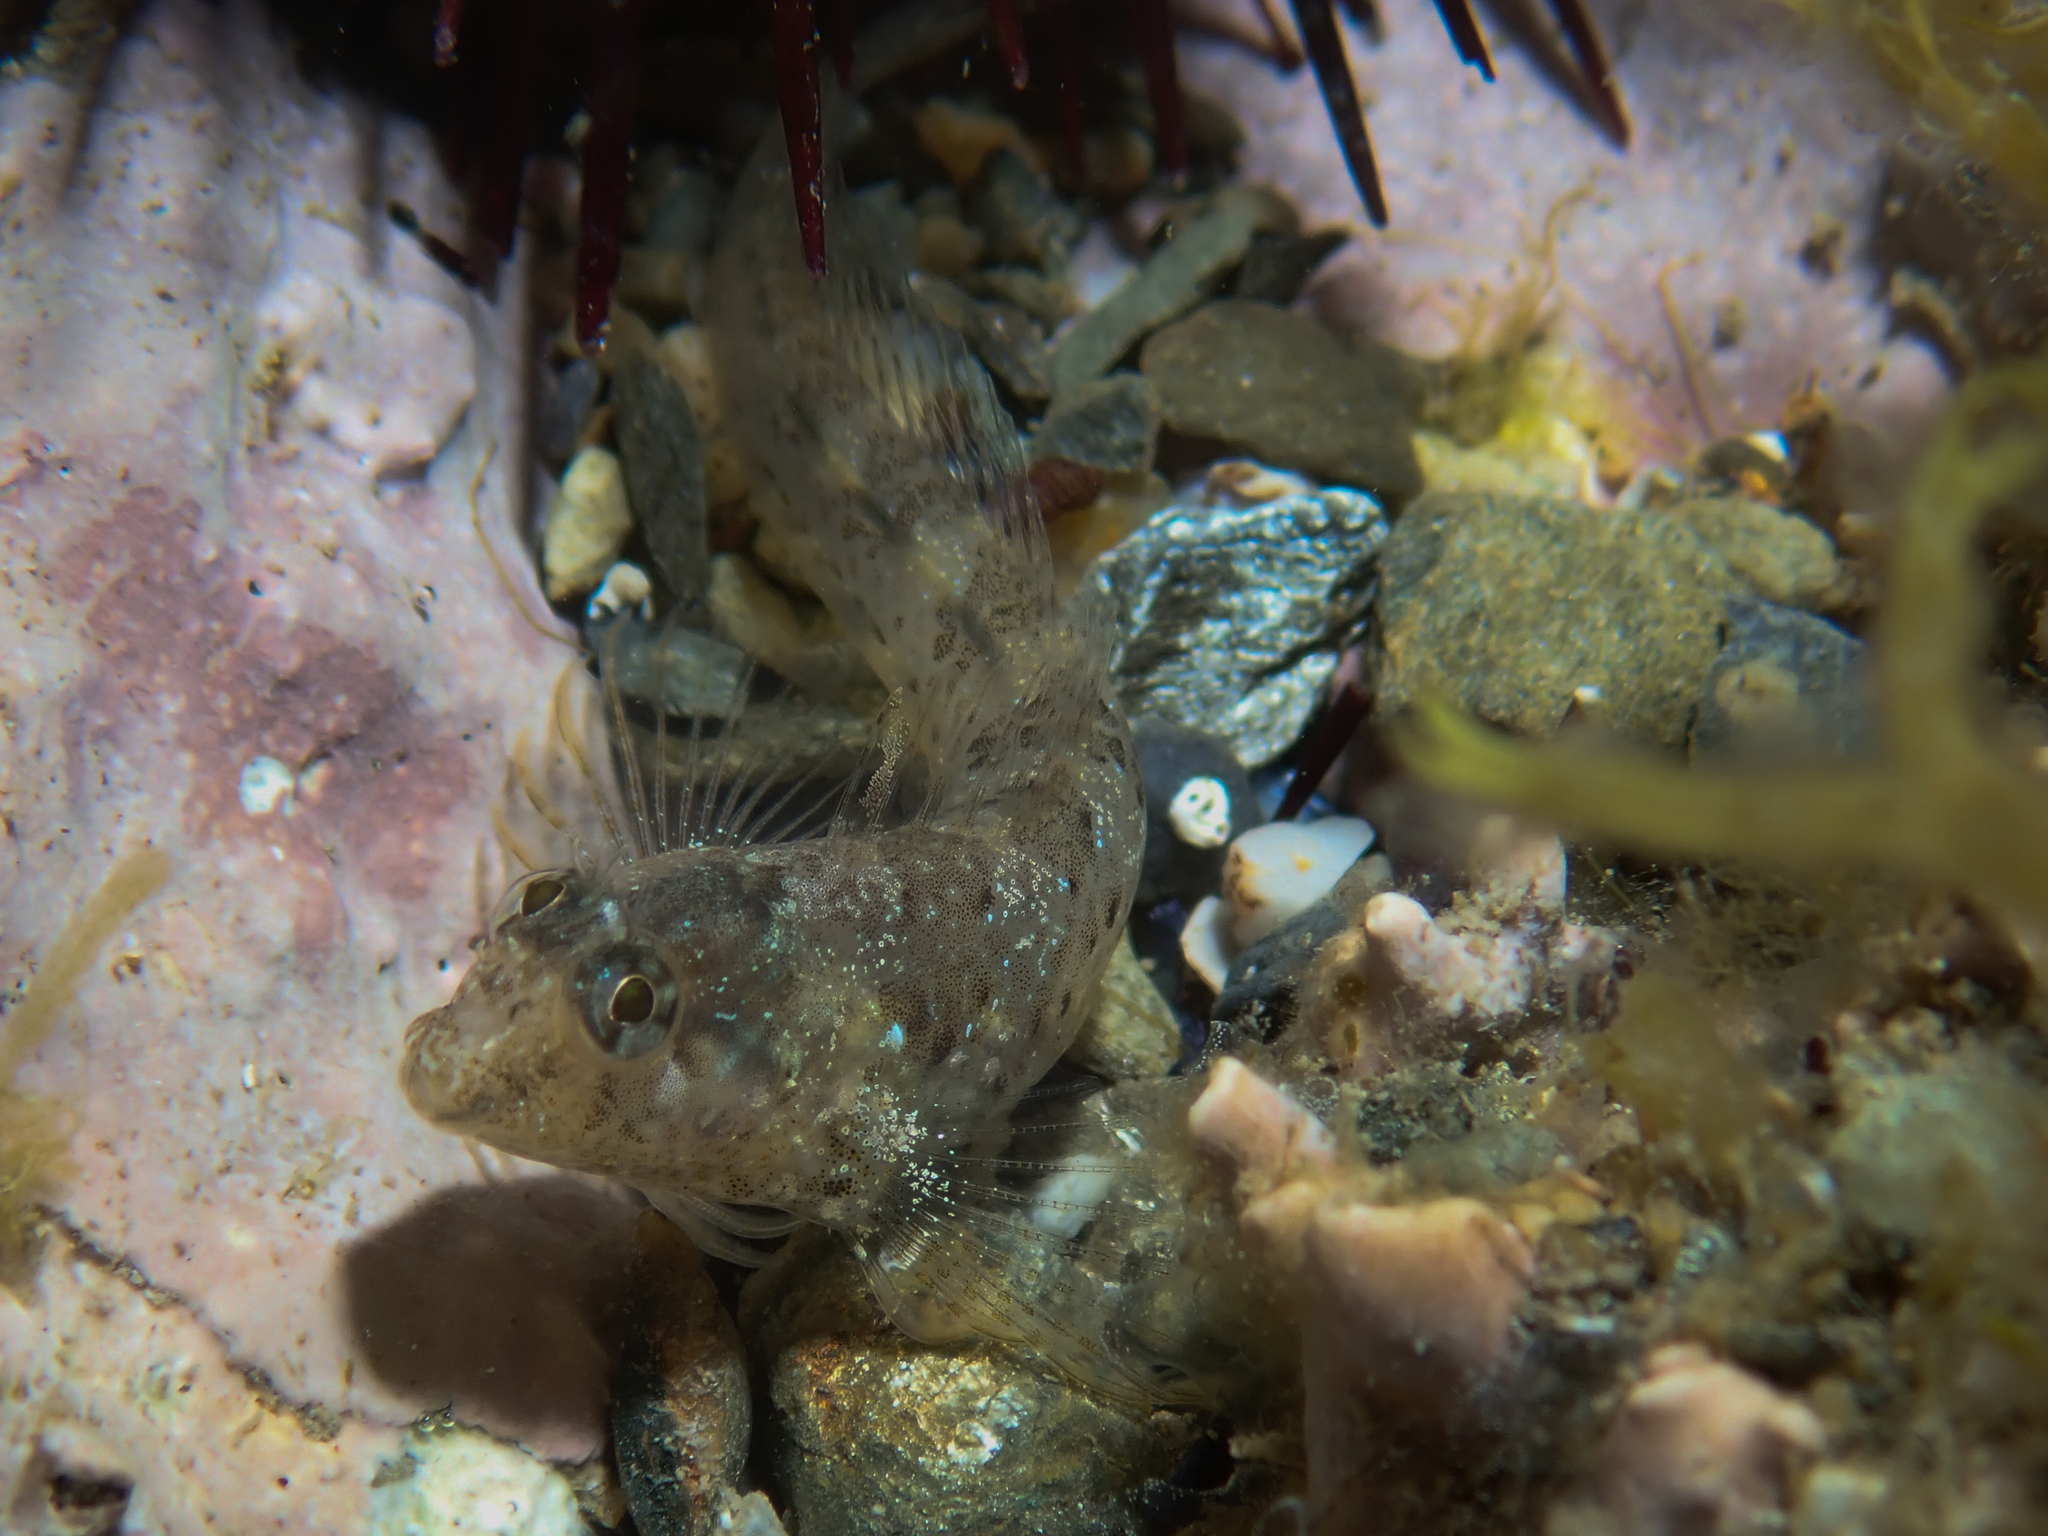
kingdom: Animalia
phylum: Chordata
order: Perciformes
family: Blenniidae
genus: Parablennius
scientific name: Parablennius incognitus
